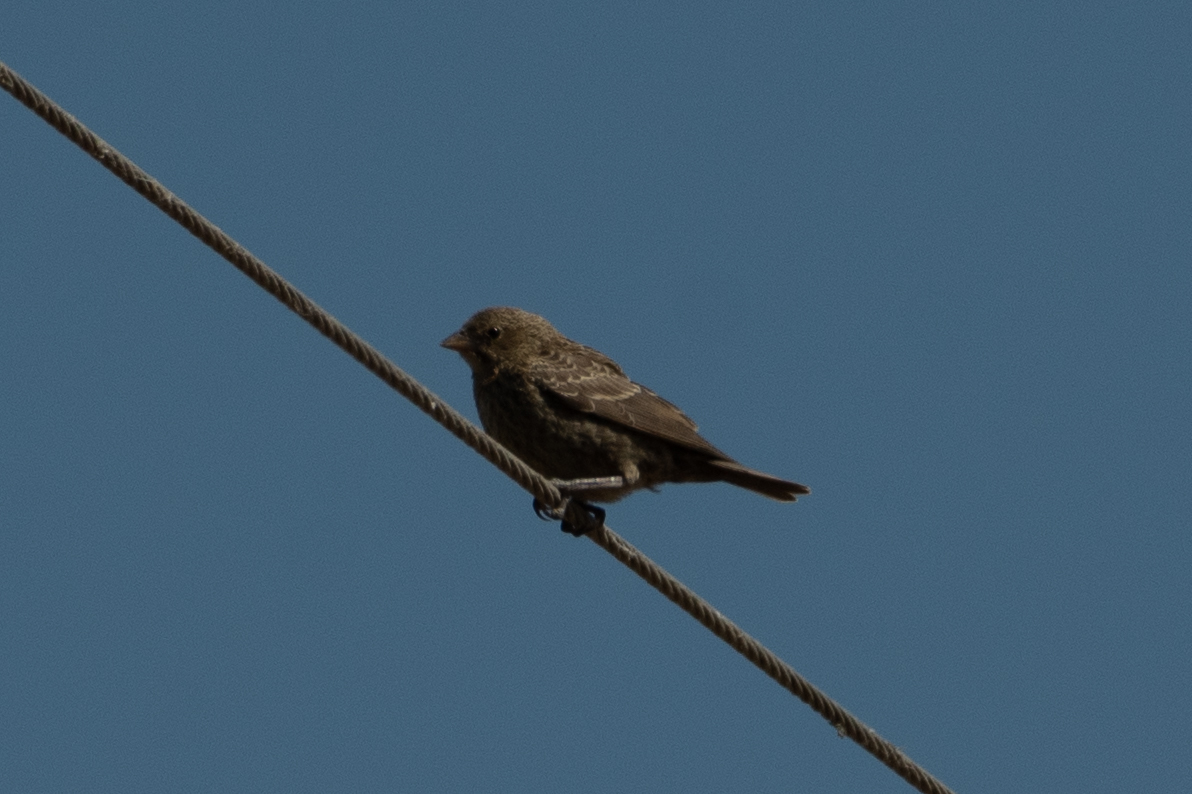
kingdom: Animalia
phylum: Chordata
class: Aves
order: Passeriformes
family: Icteridae
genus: Molothrus
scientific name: Molothrus ater
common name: Brown-headed cowbird
